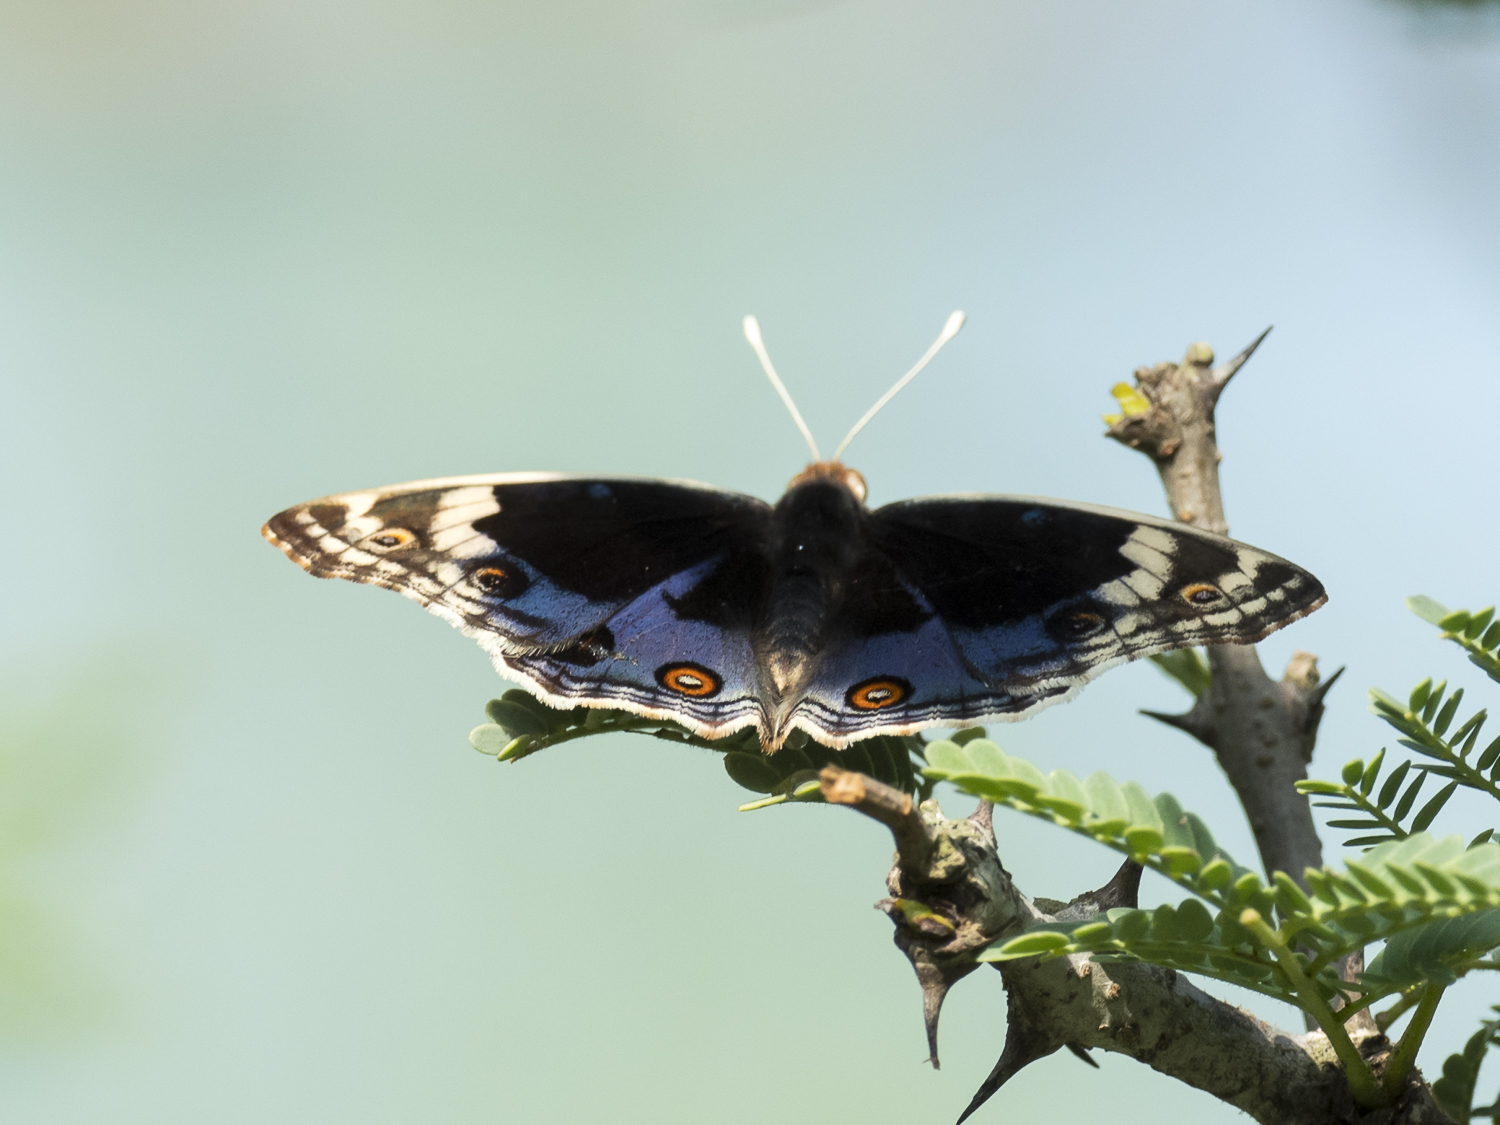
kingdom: Animalia
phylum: Arthropoda
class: Insecta
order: Lepidoptera
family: Nymphalidae
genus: Junonia
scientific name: Junonia orithya
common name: Blue pansy
